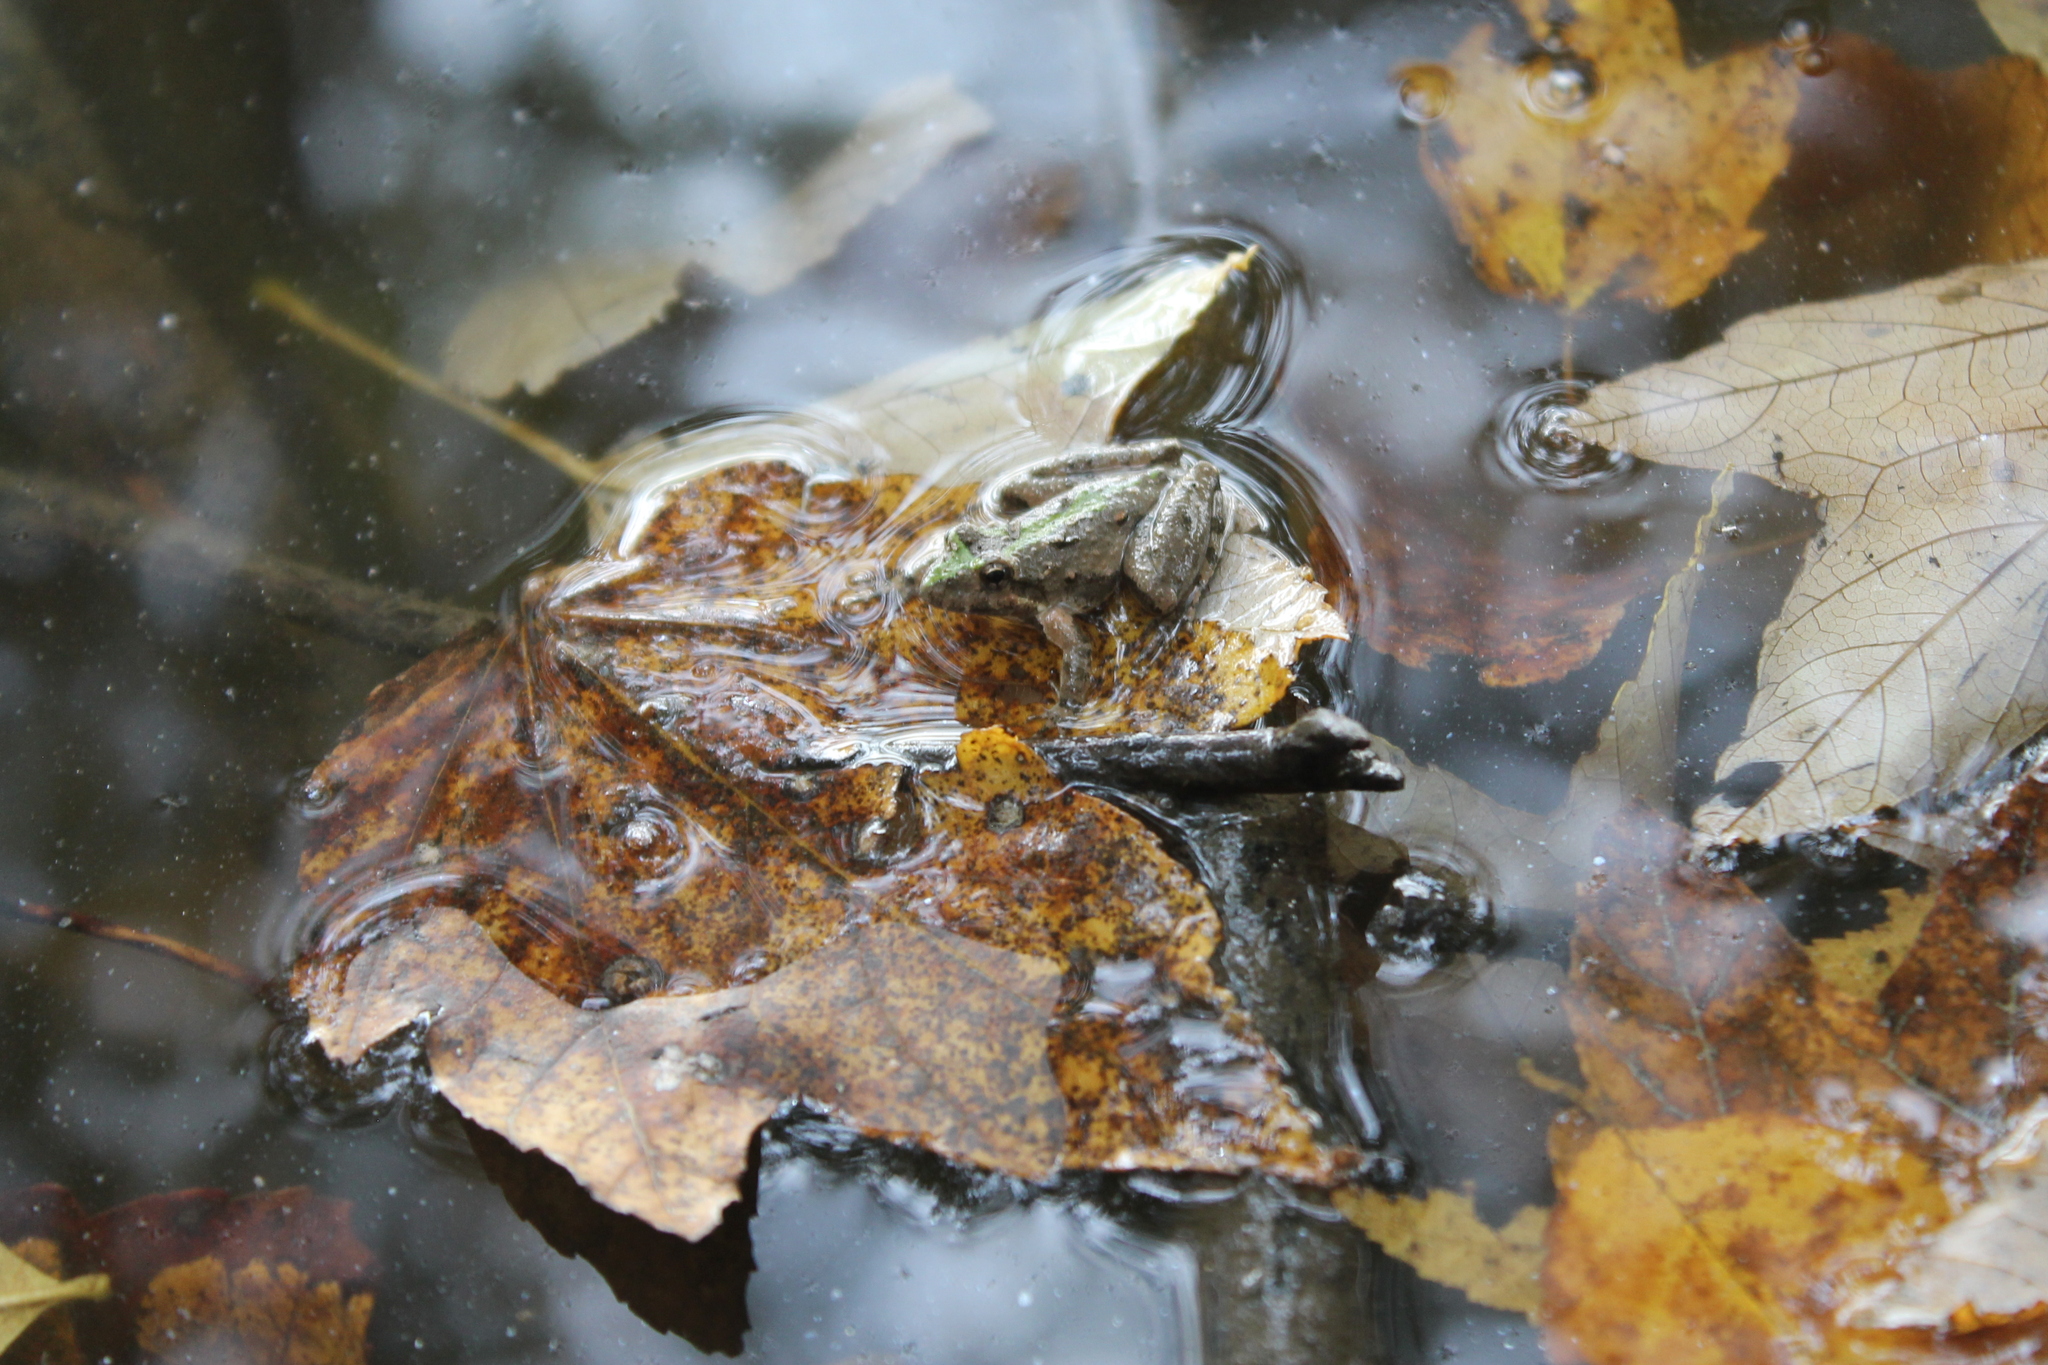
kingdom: Animalia
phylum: Chordata
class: Amphibia
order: Anura
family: Hylidae
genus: Acris
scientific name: Acris crepitans
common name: Northern cricket frog
